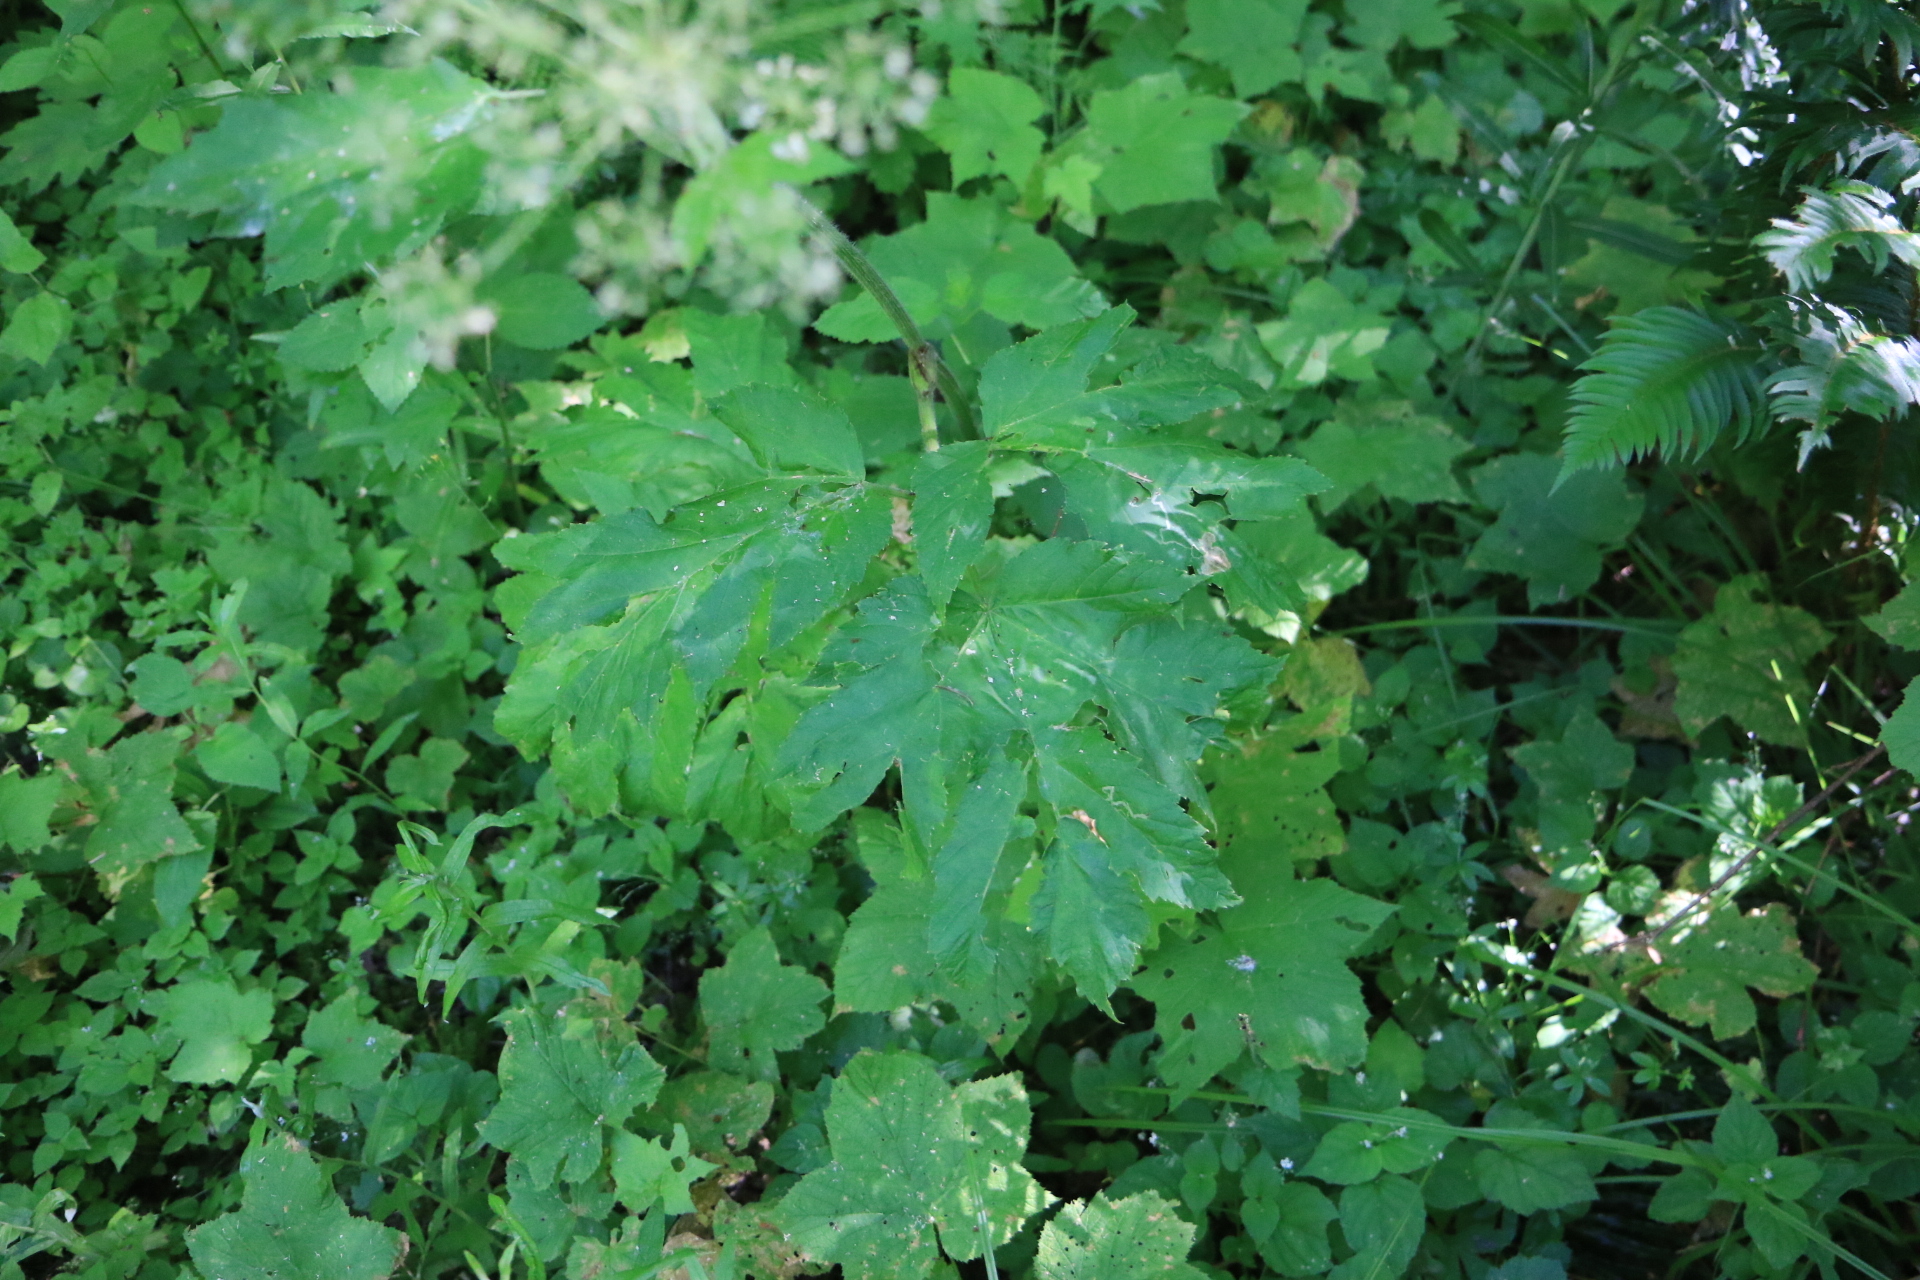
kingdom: Plantae
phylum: Tracheophyta
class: Magnoliopsida
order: Apiales
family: Apiaceae
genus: Heracleum
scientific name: Heracleum maximum
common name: American cow parsnip
